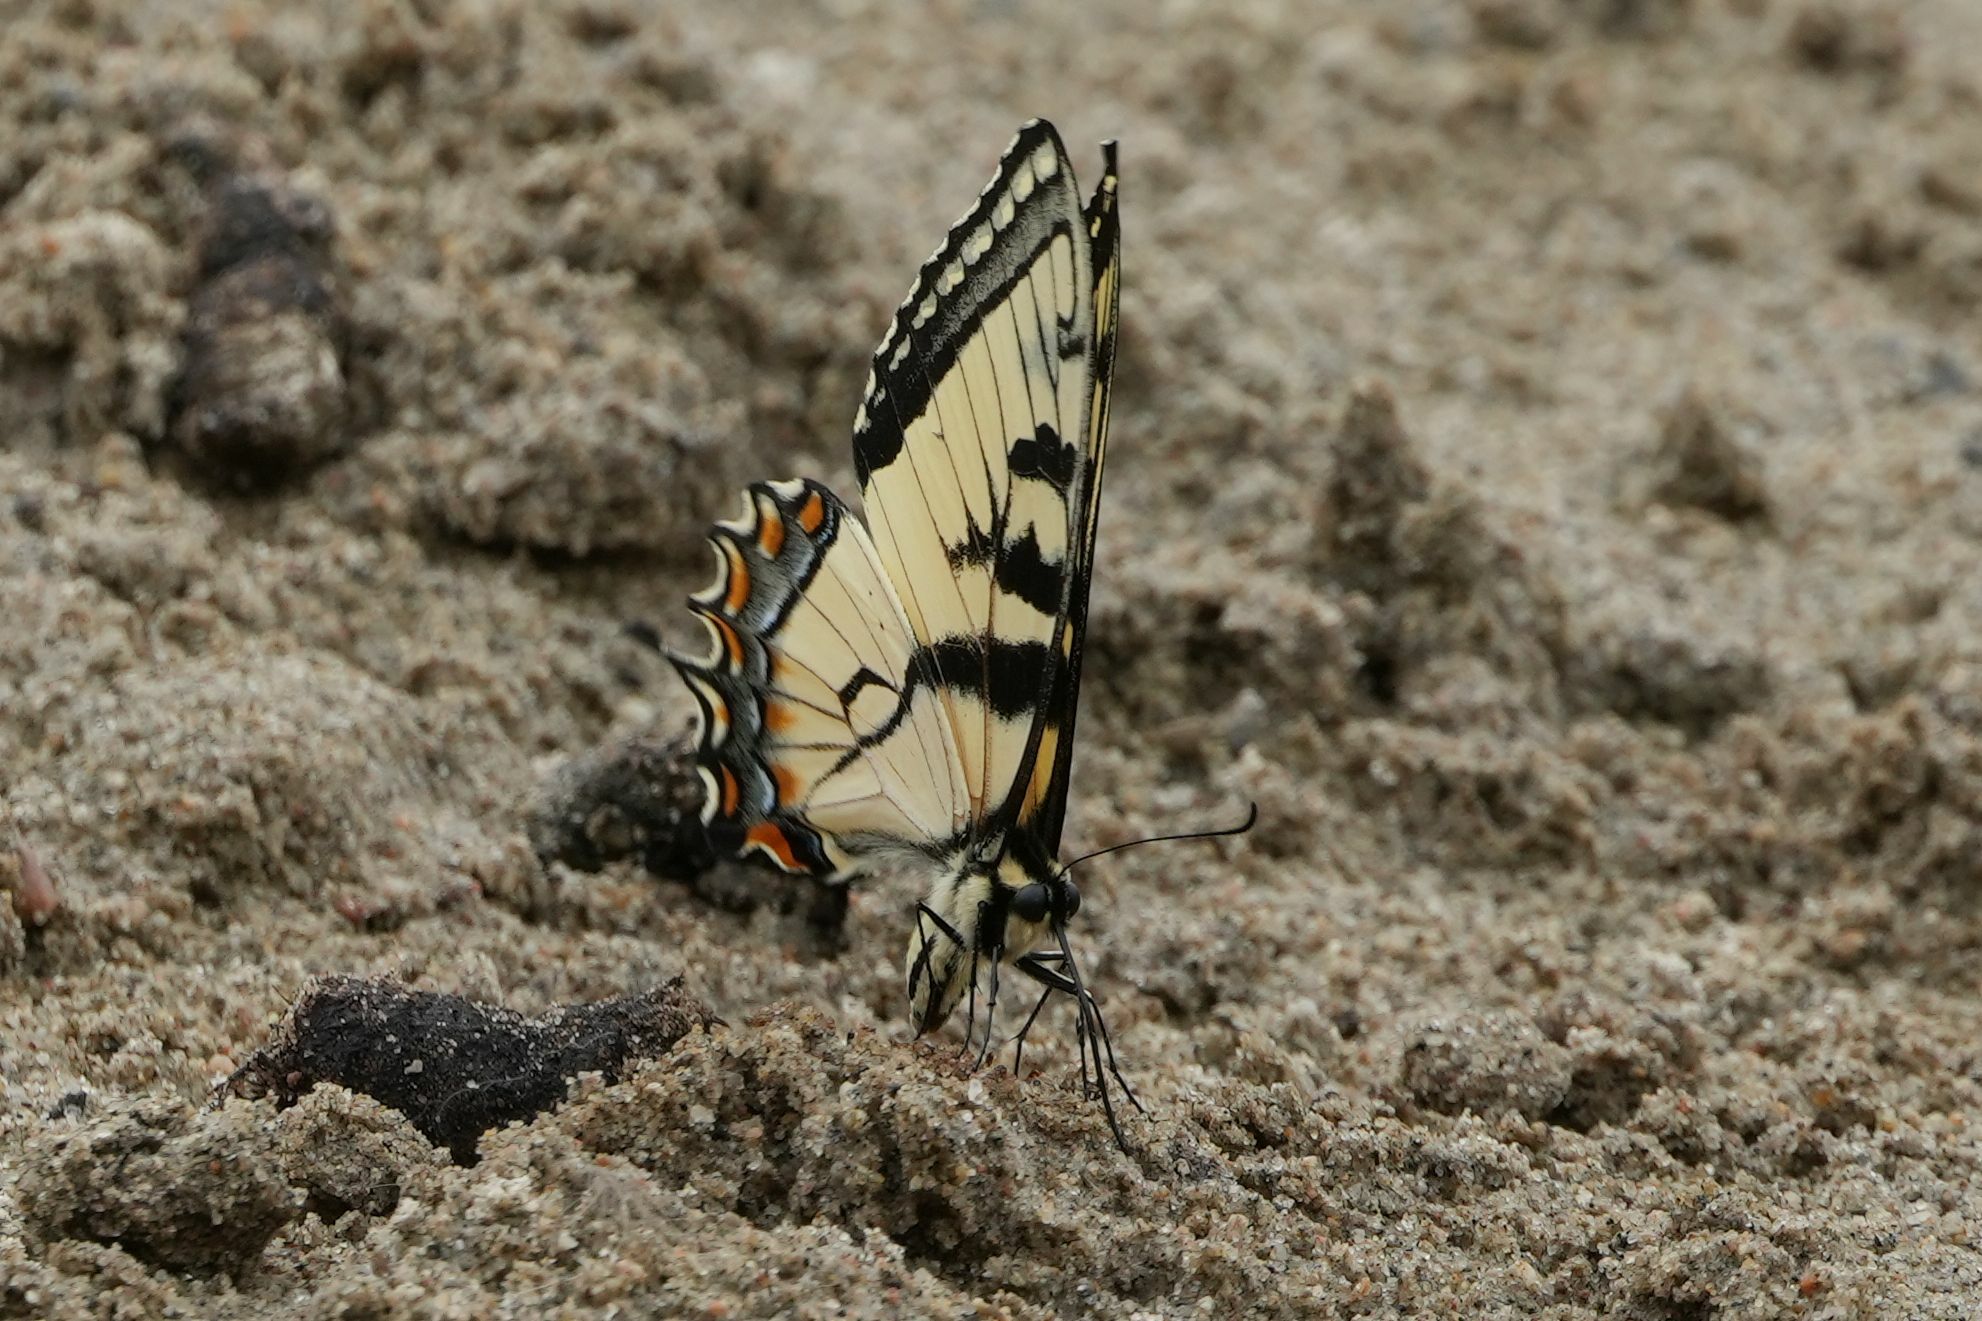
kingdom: Animalia
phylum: Arthropoda
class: Insecta
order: Lepidoptera
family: Papilionidae
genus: Papilio
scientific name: Papilio
